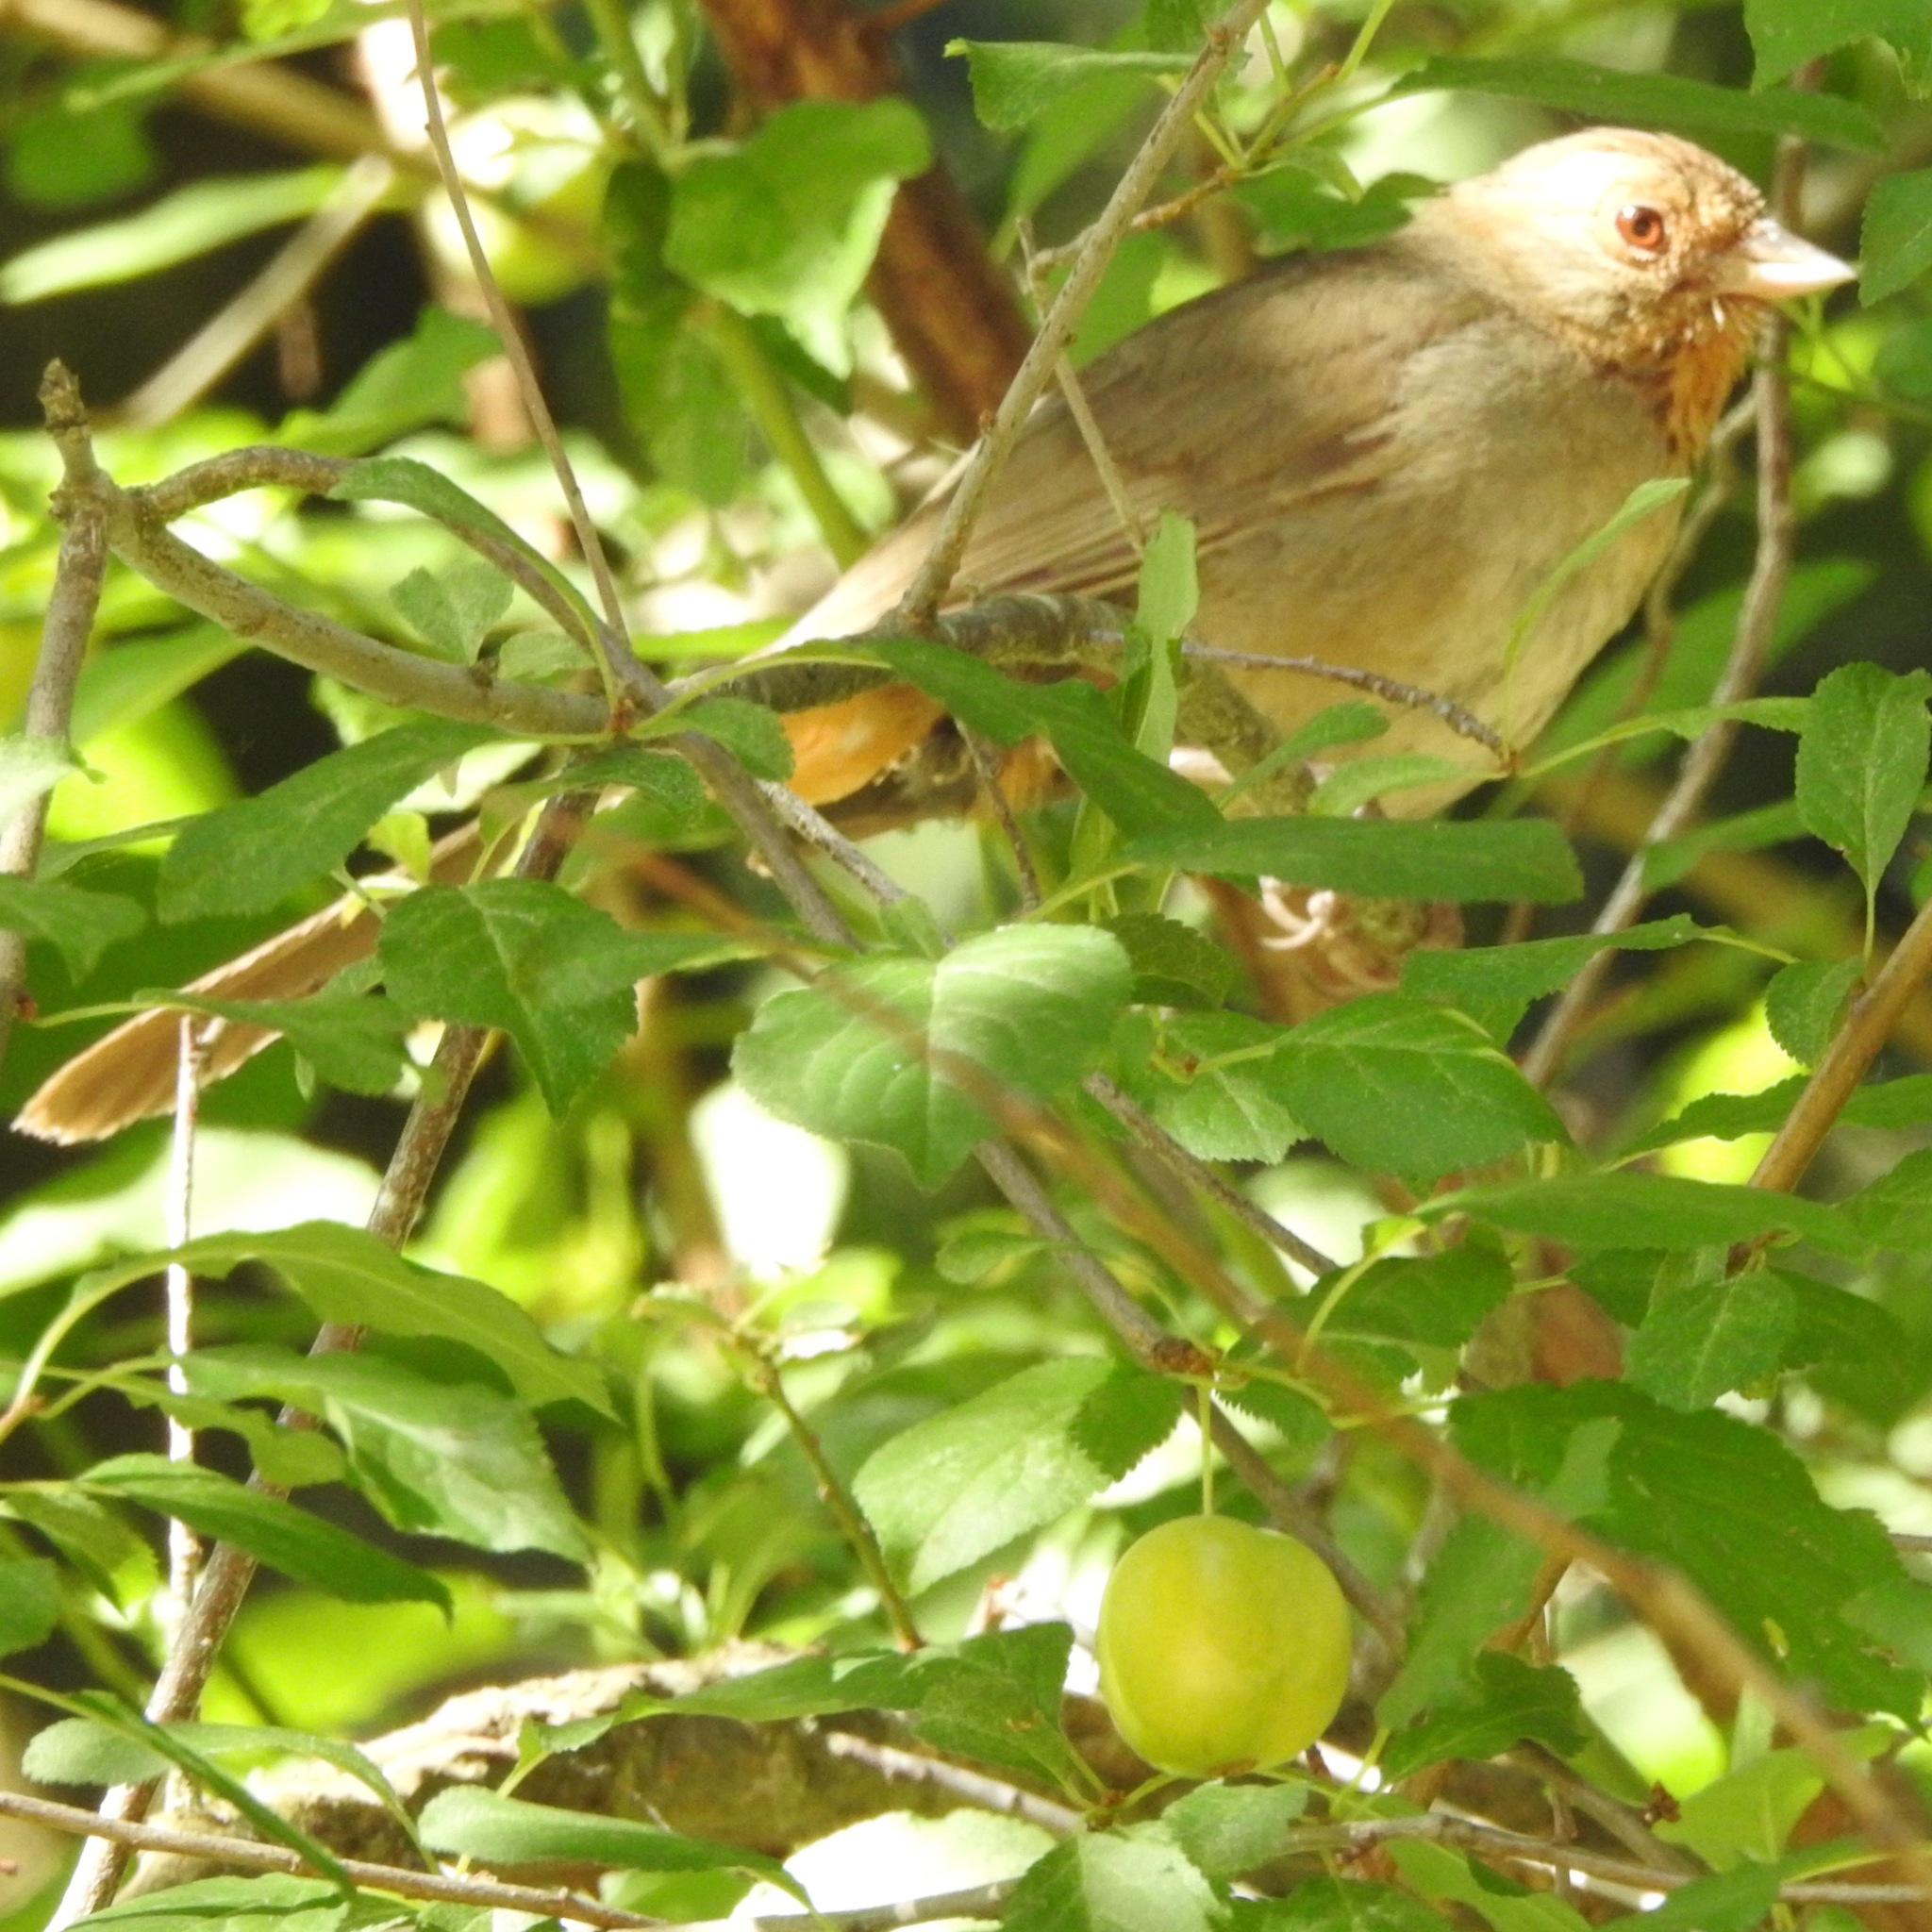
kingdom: Animalia
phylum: Chordata
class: Aves
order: Passeriformes
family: Passerellidae
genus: Melozone
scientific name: Melozone crissalis
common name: California towhee
